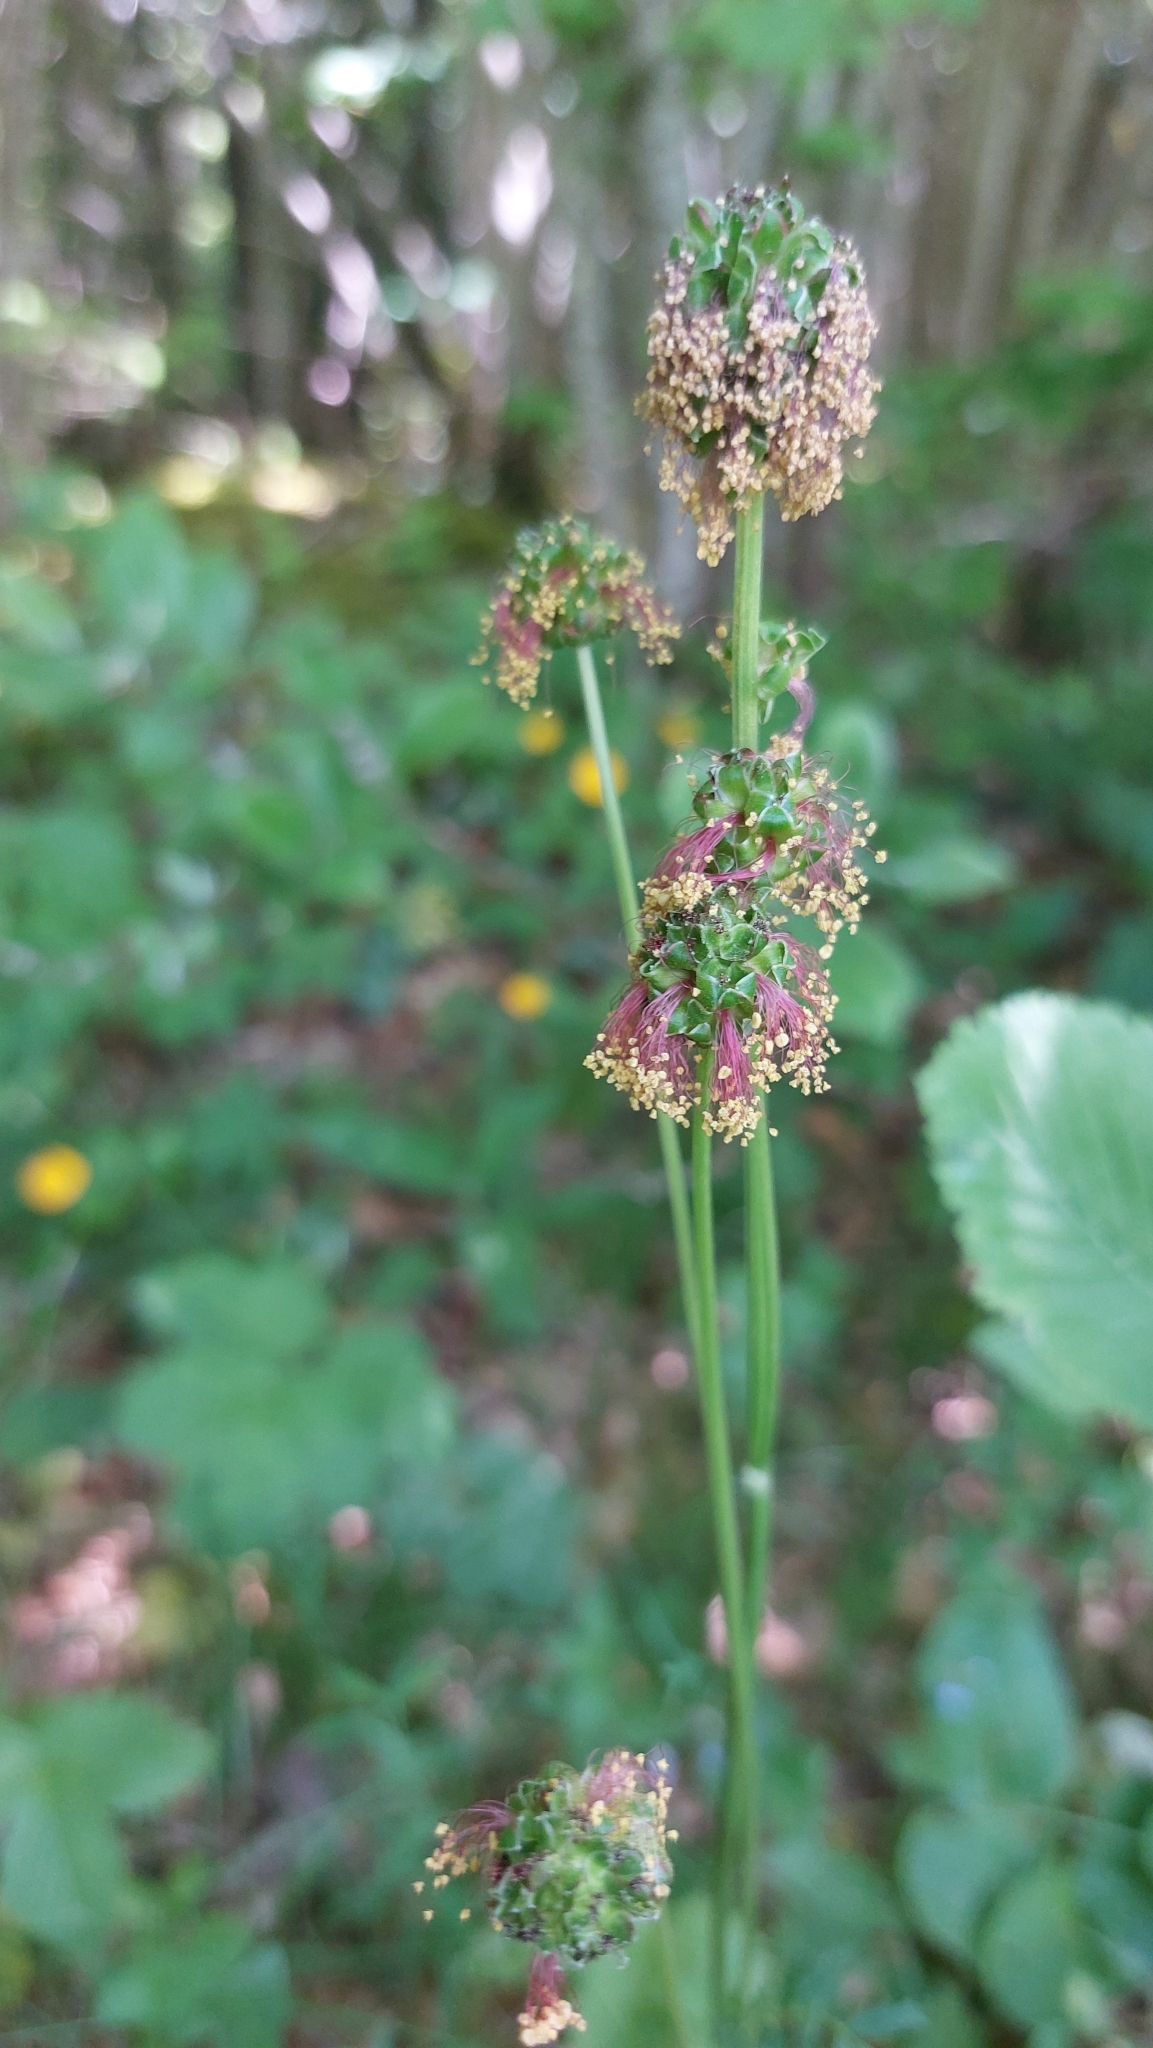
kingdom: Plantae
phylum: Tracheophyta
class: Magnoliopsida
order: Rosales
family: Rosaceae
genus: Poterium
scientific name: Poterium sanguisorba
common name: Salad burnet
